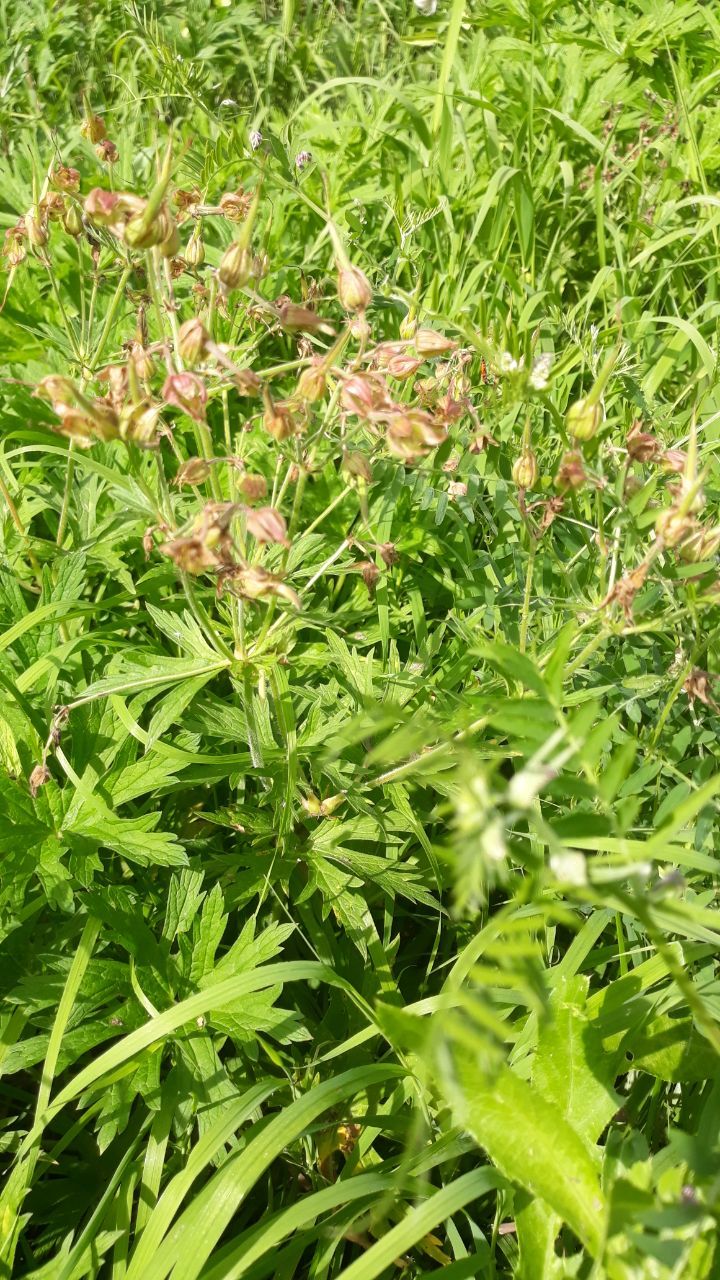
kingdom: Plantae
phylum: Tracheophyta
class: Magnoliopsida
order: Geraniales
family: Geraniaceae
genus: Geranium
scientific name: Geranium pratense
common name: Meadow crane's-bill
